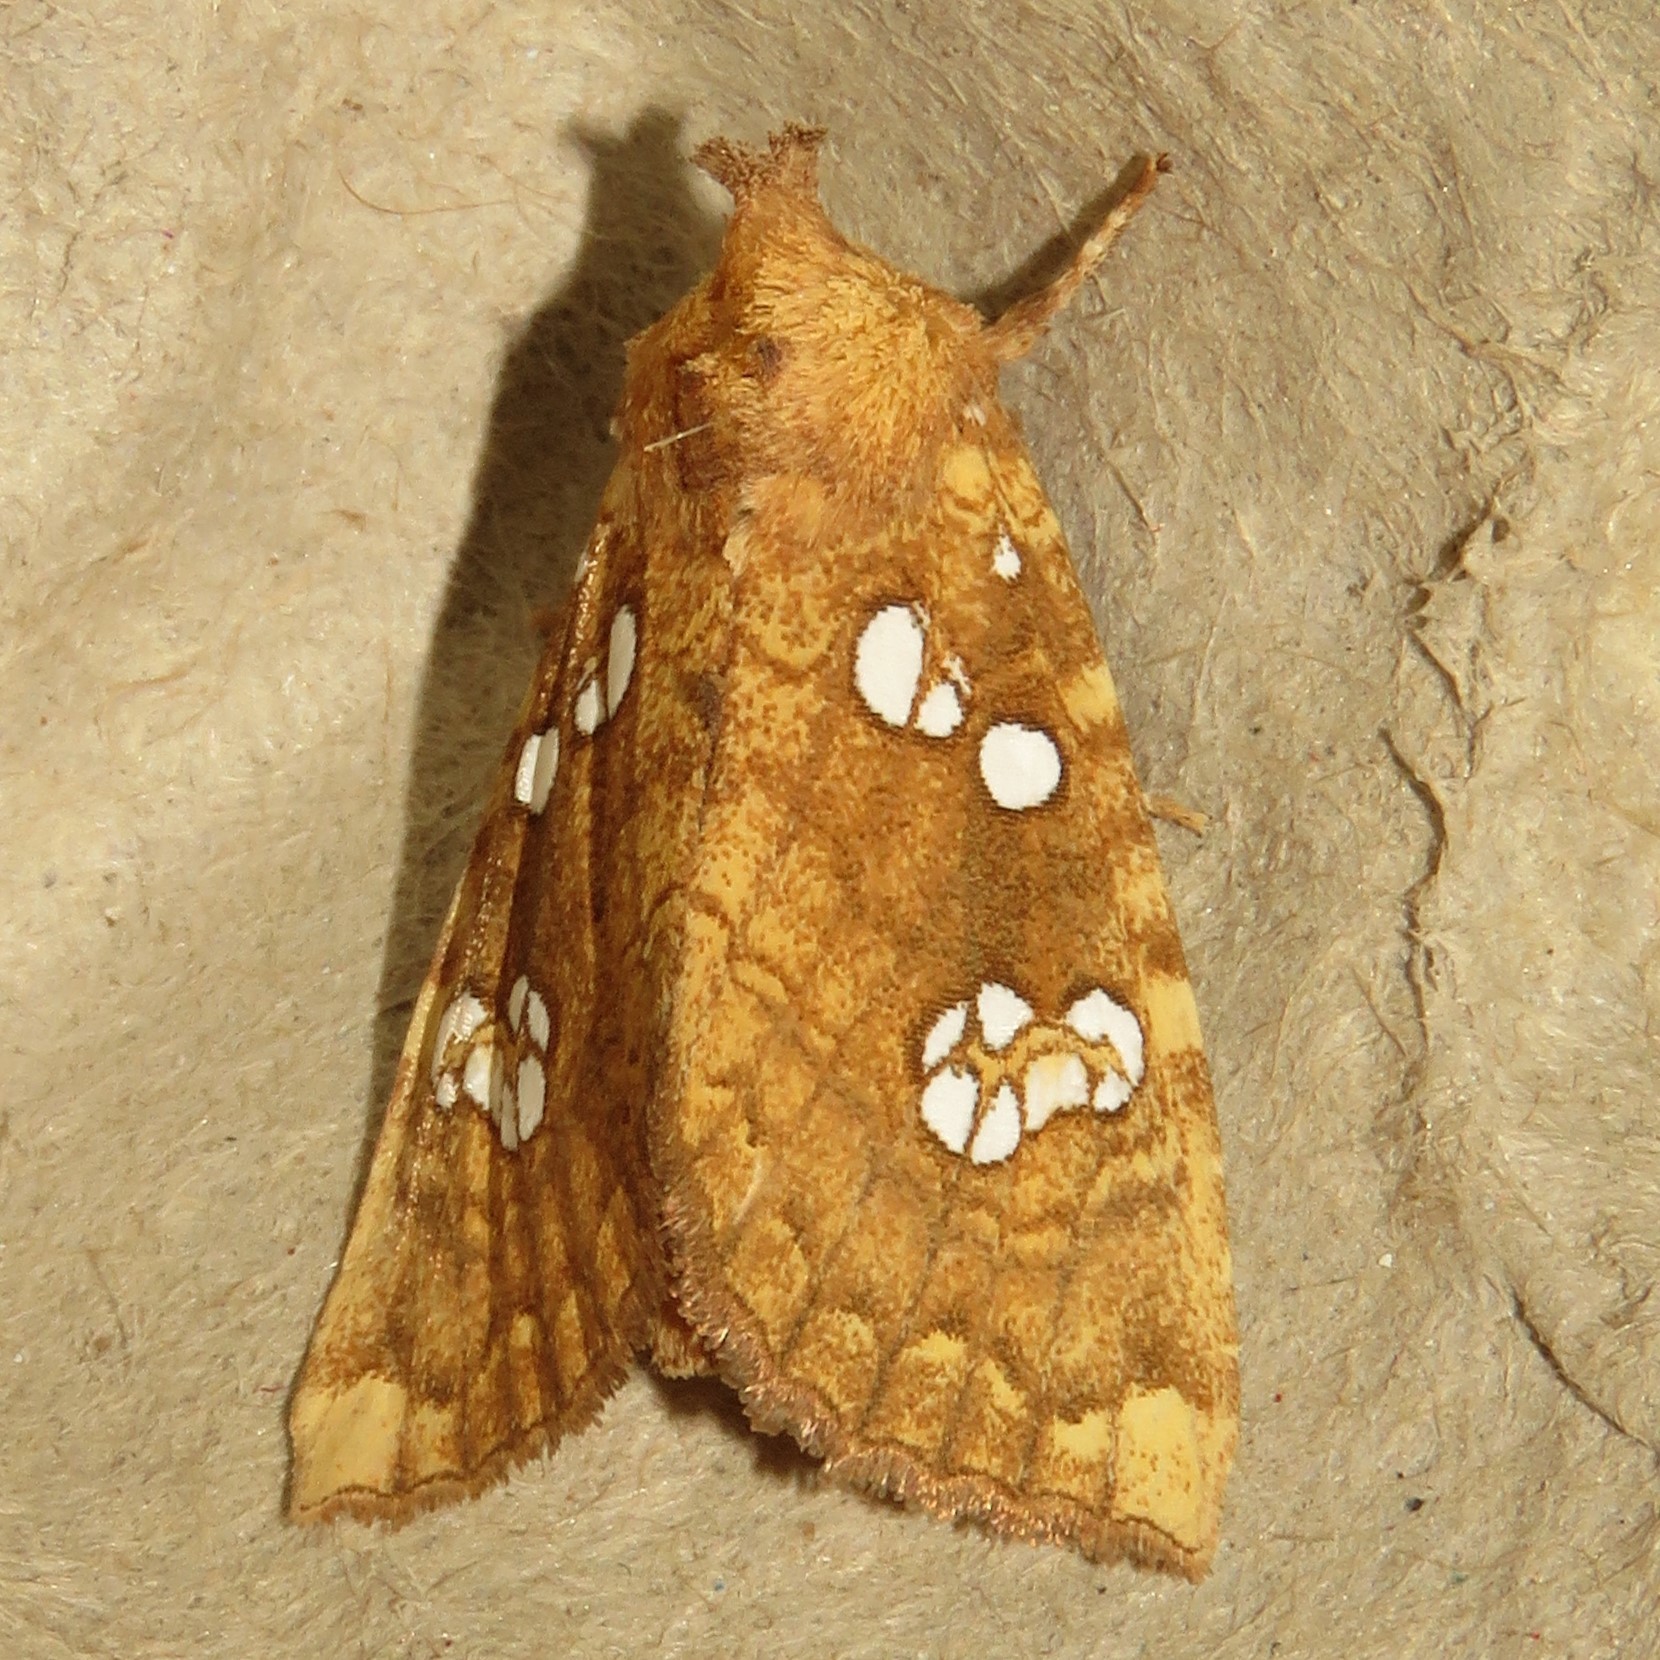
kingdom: Animalia
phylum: Arthropoda
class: Insecta
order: Lepidoptera
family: Noctuidae
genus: Papaipema
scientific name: Papaipema furcata
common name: Ash tip borer moth
